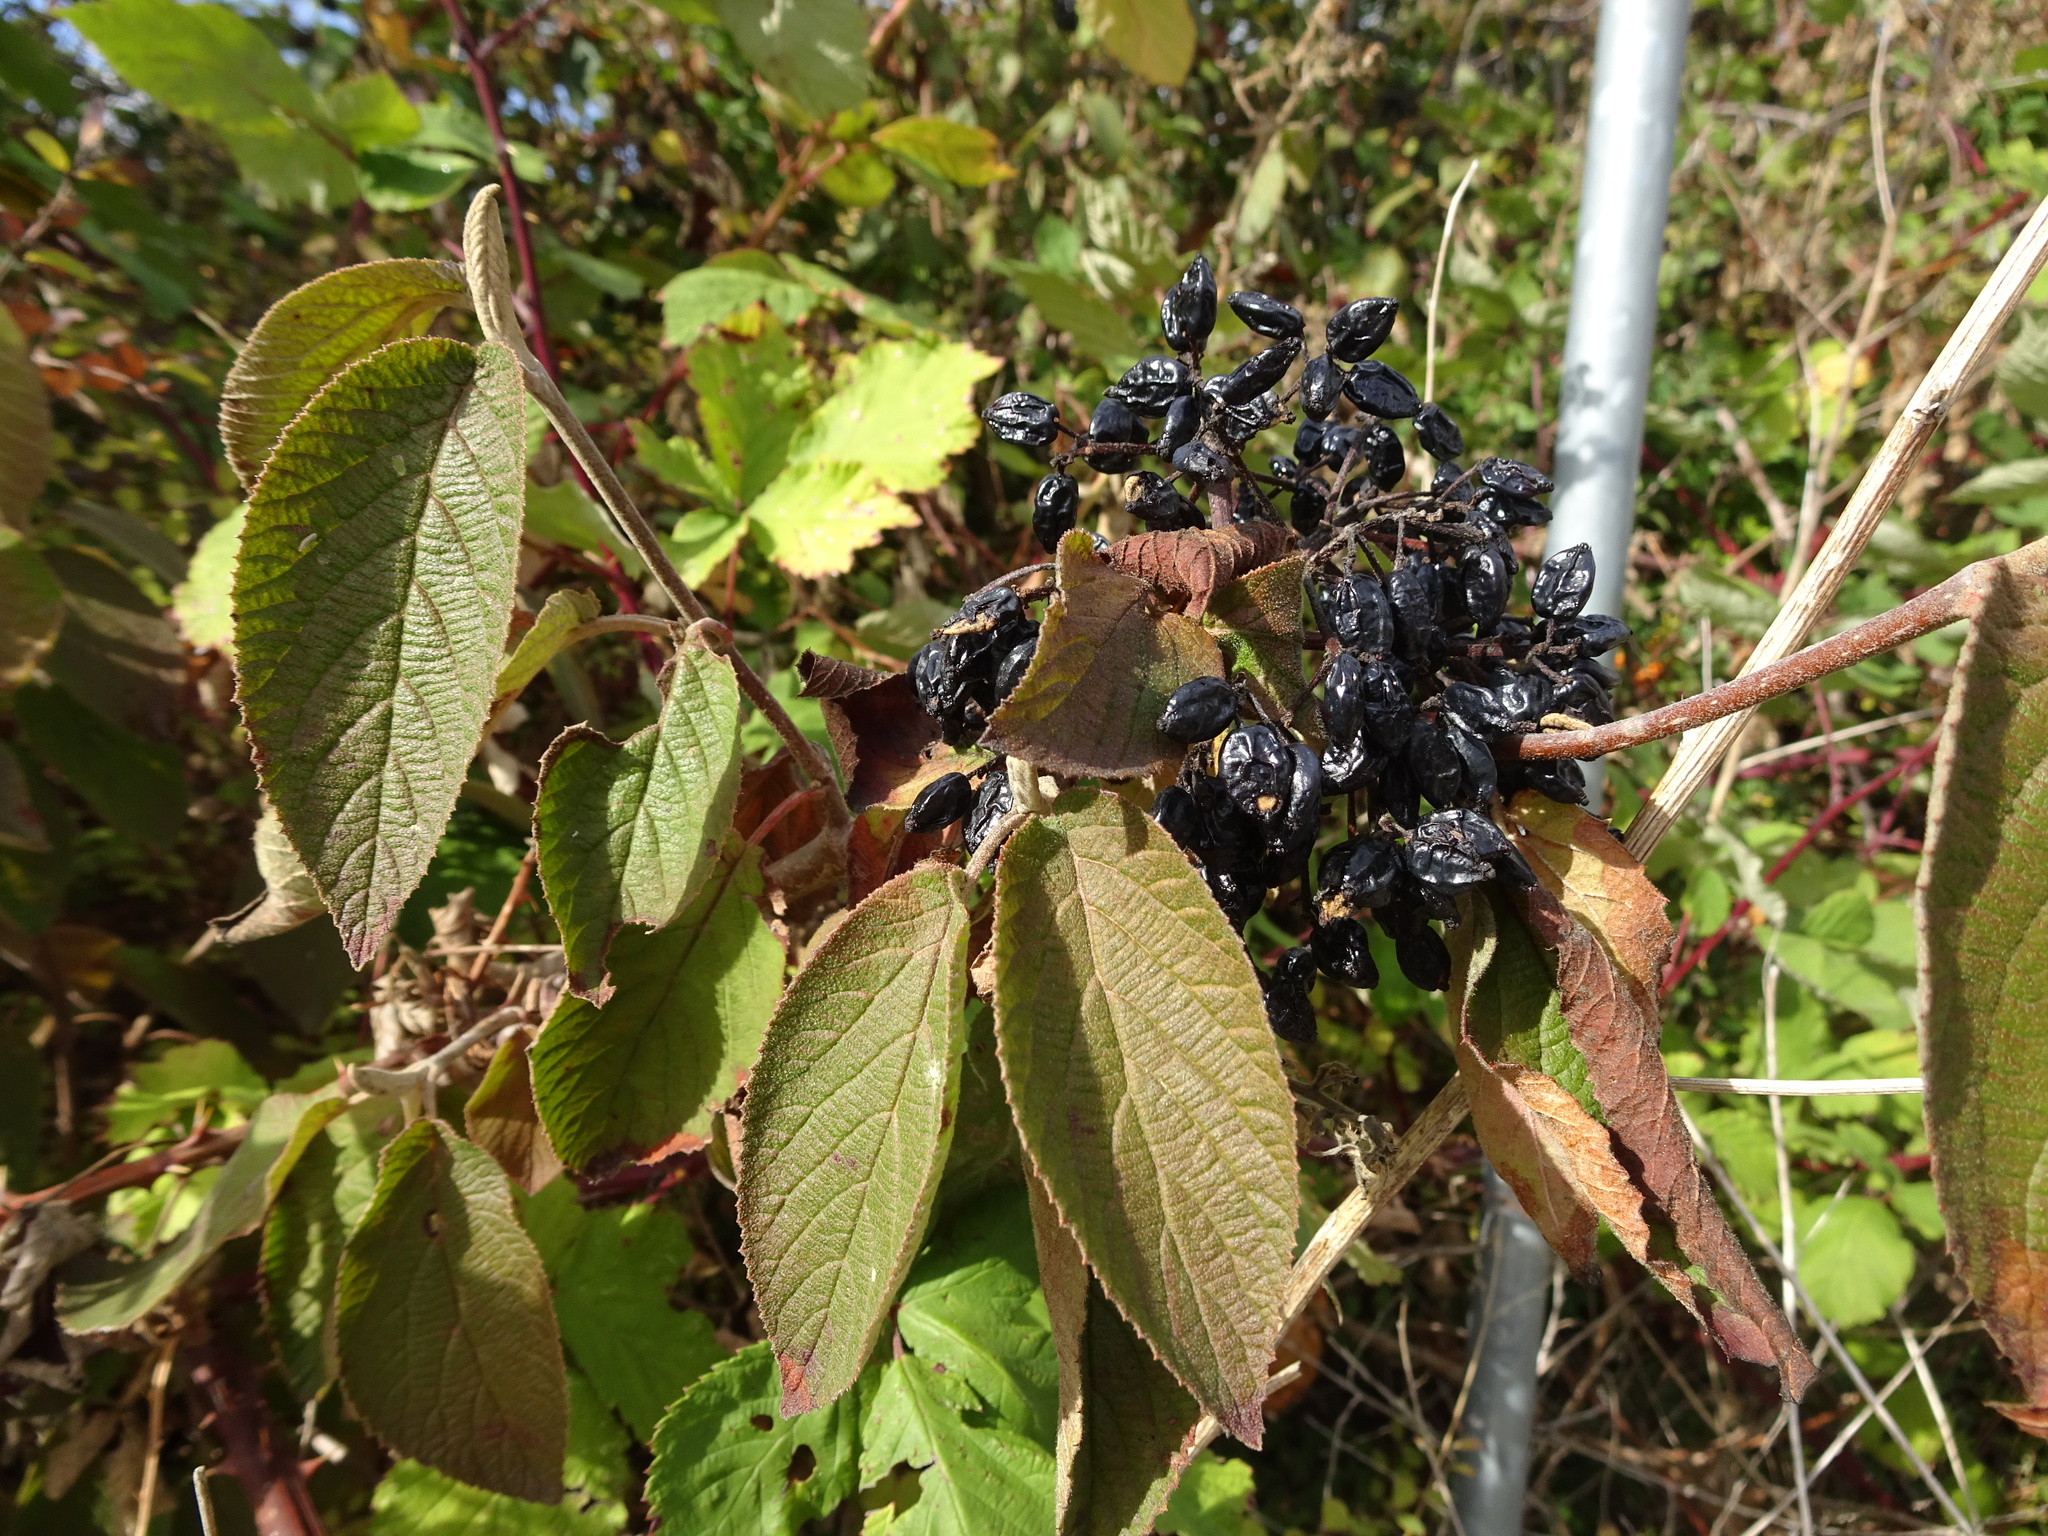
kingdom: Plantae
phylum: Tracheophyta
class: Magnoliopsida
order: Dipsacales
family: Viburnaceae
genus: Viburnum
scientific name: Viburnum lantana
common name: Wayfaring tree
